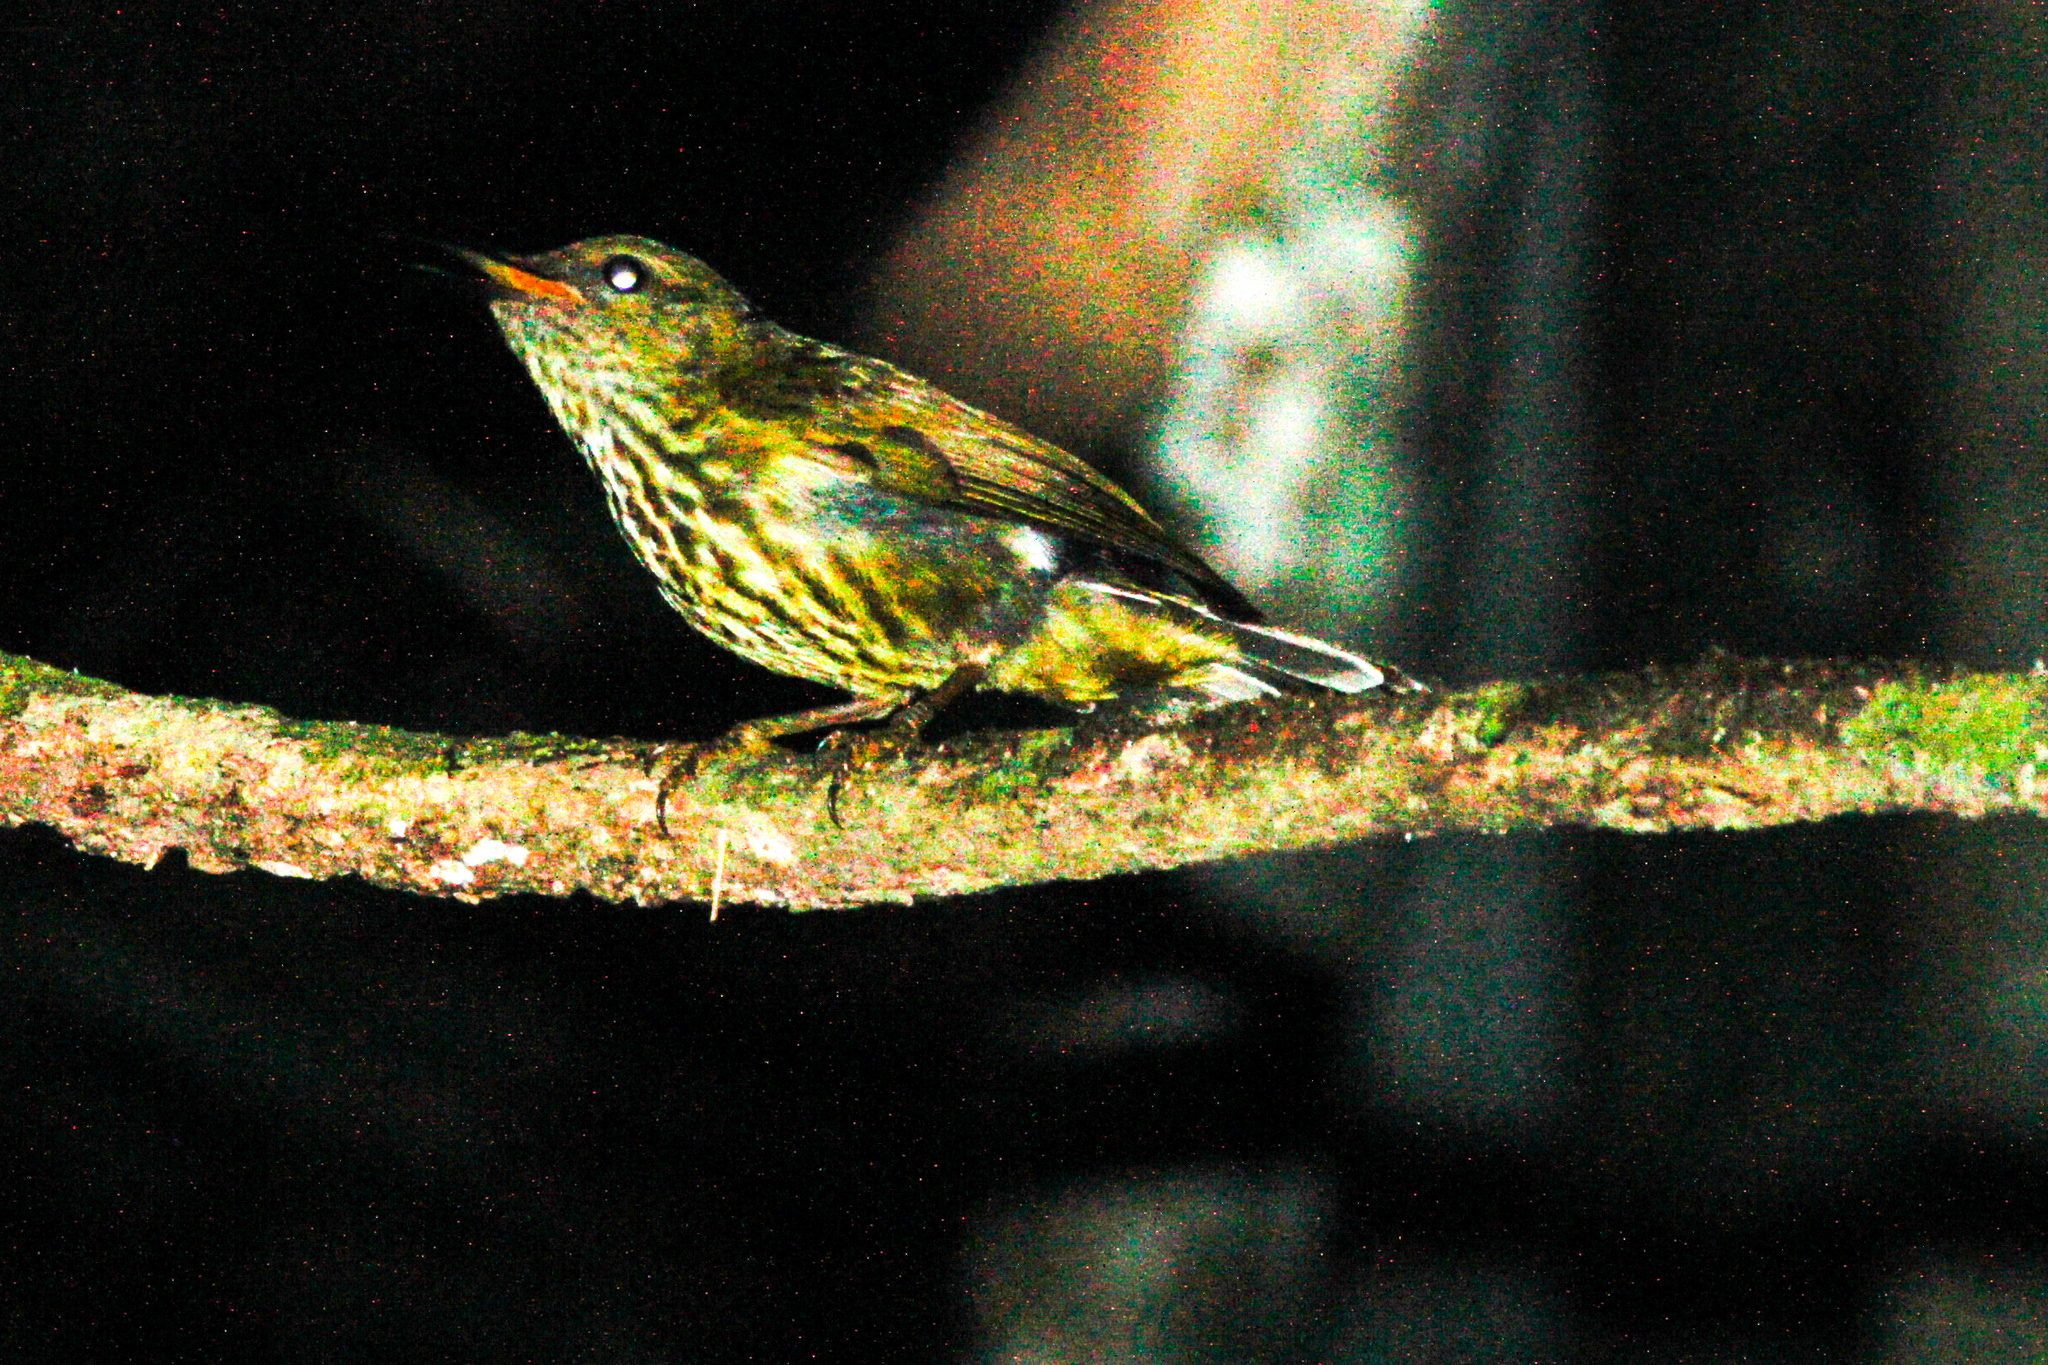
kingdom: Animalia
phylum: Chordata
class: Aves
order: Passeriformes
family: Nectariniidae
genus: Hypogramma
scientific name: Hypogramma hypogrammicum
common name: Purple-naped sunbird
